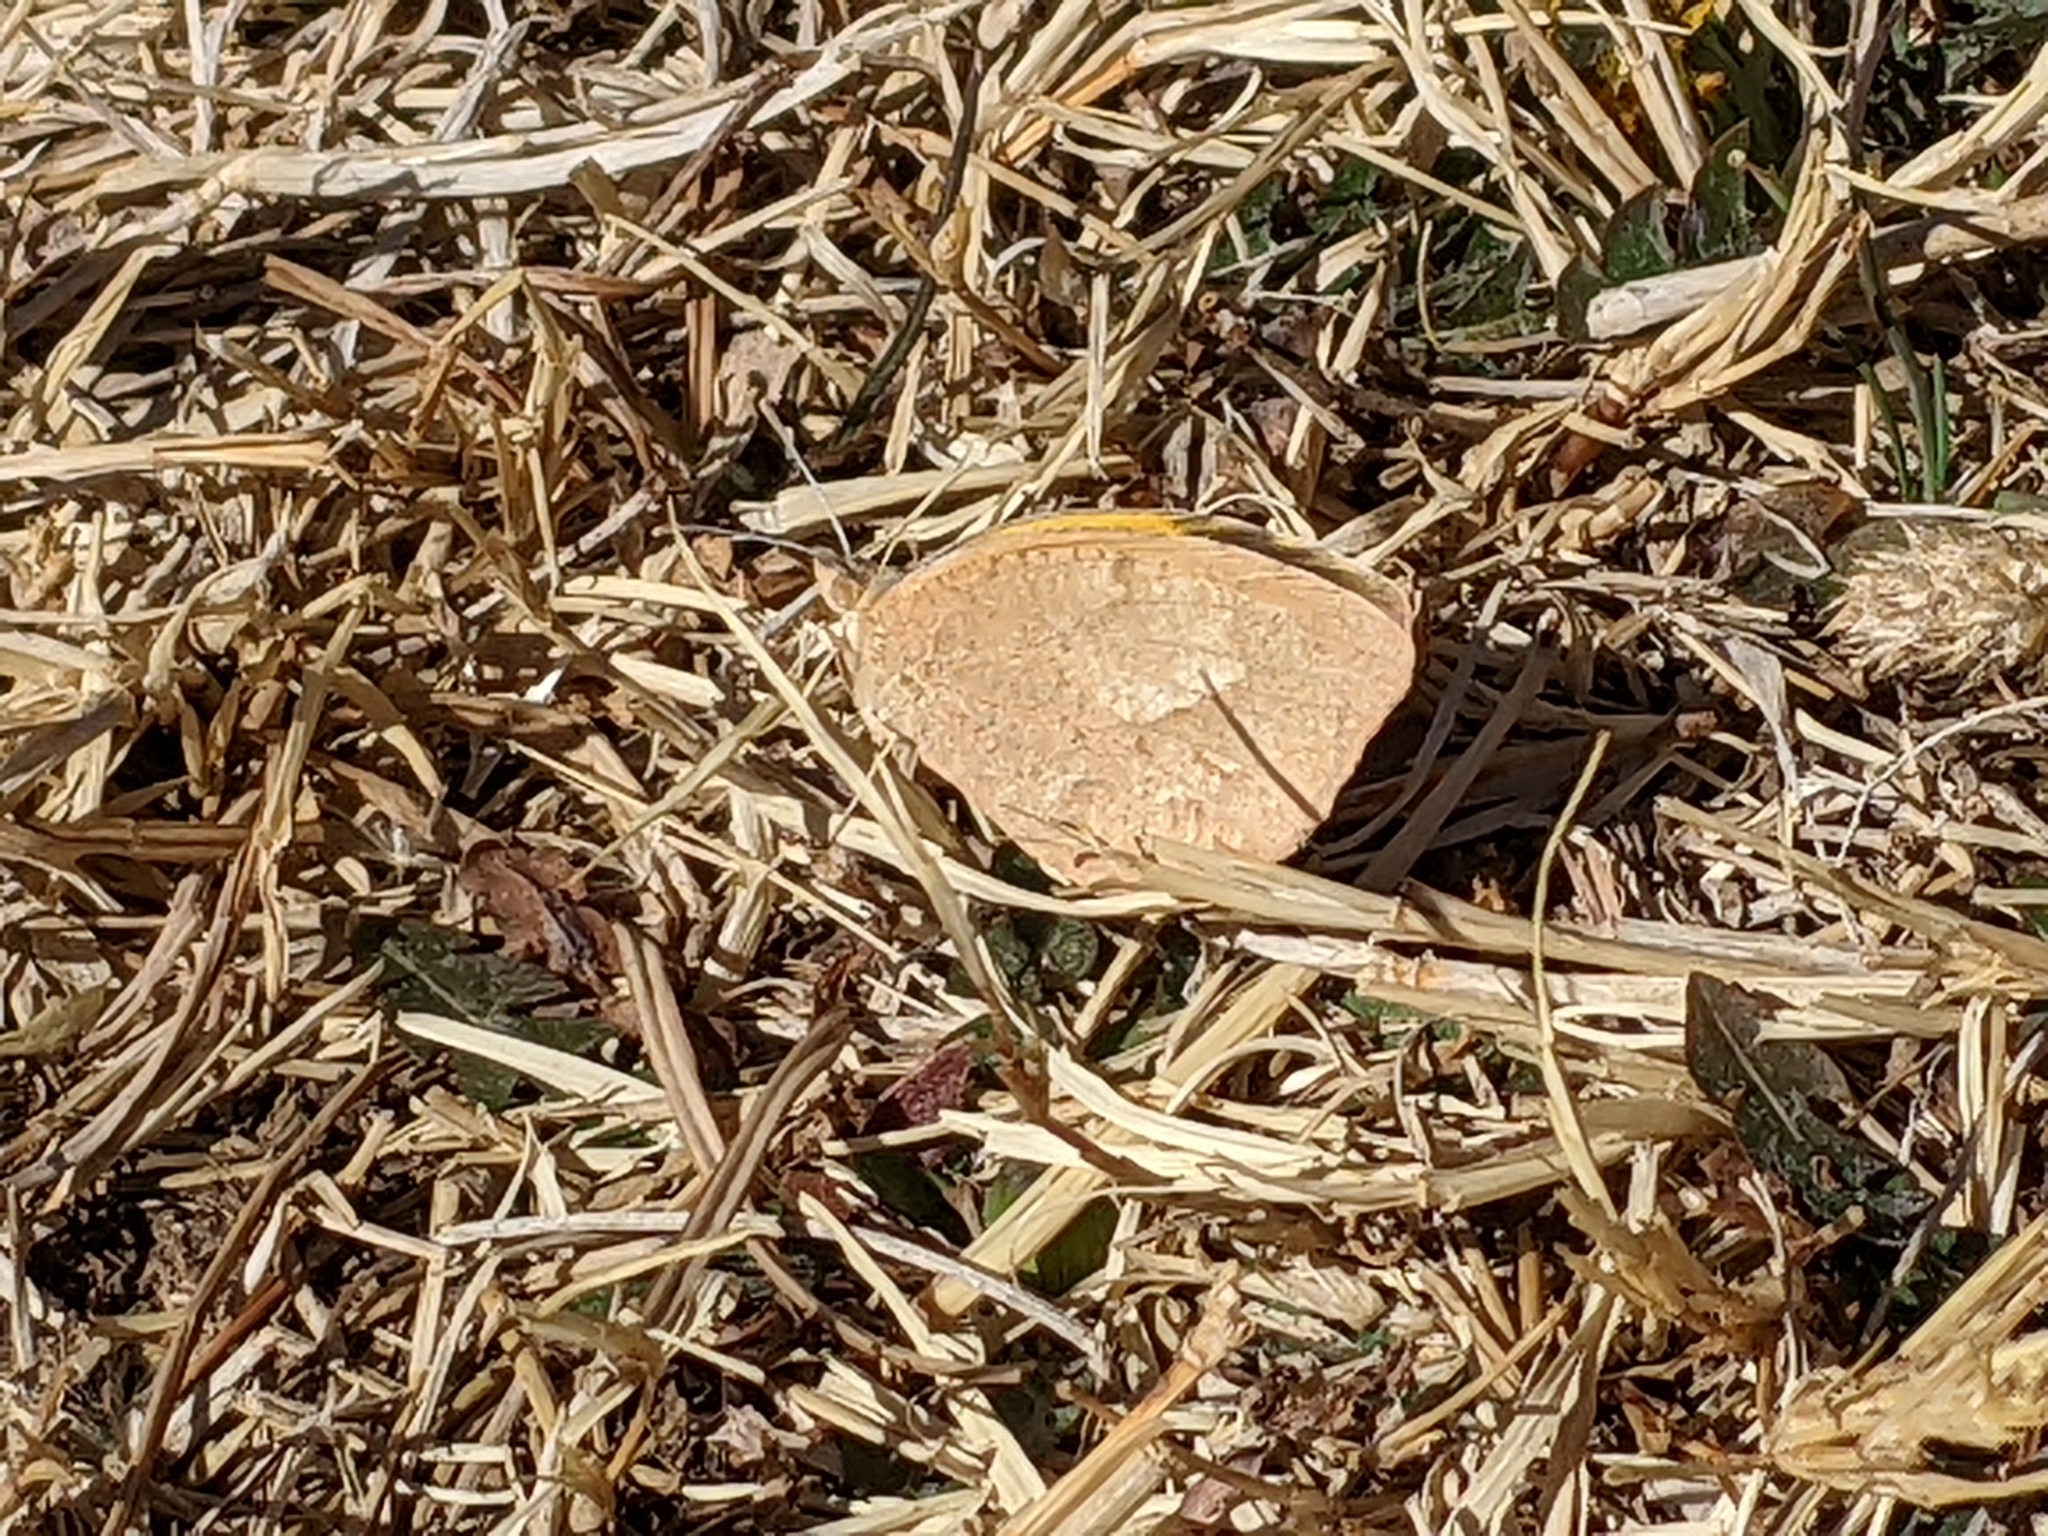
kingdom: Animalia
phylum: Arthropoda
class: Insecta
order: Lepidoptera
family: Pieridae
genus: Abaeis
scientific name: Abaeis nicippe
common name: Sleepy orange
